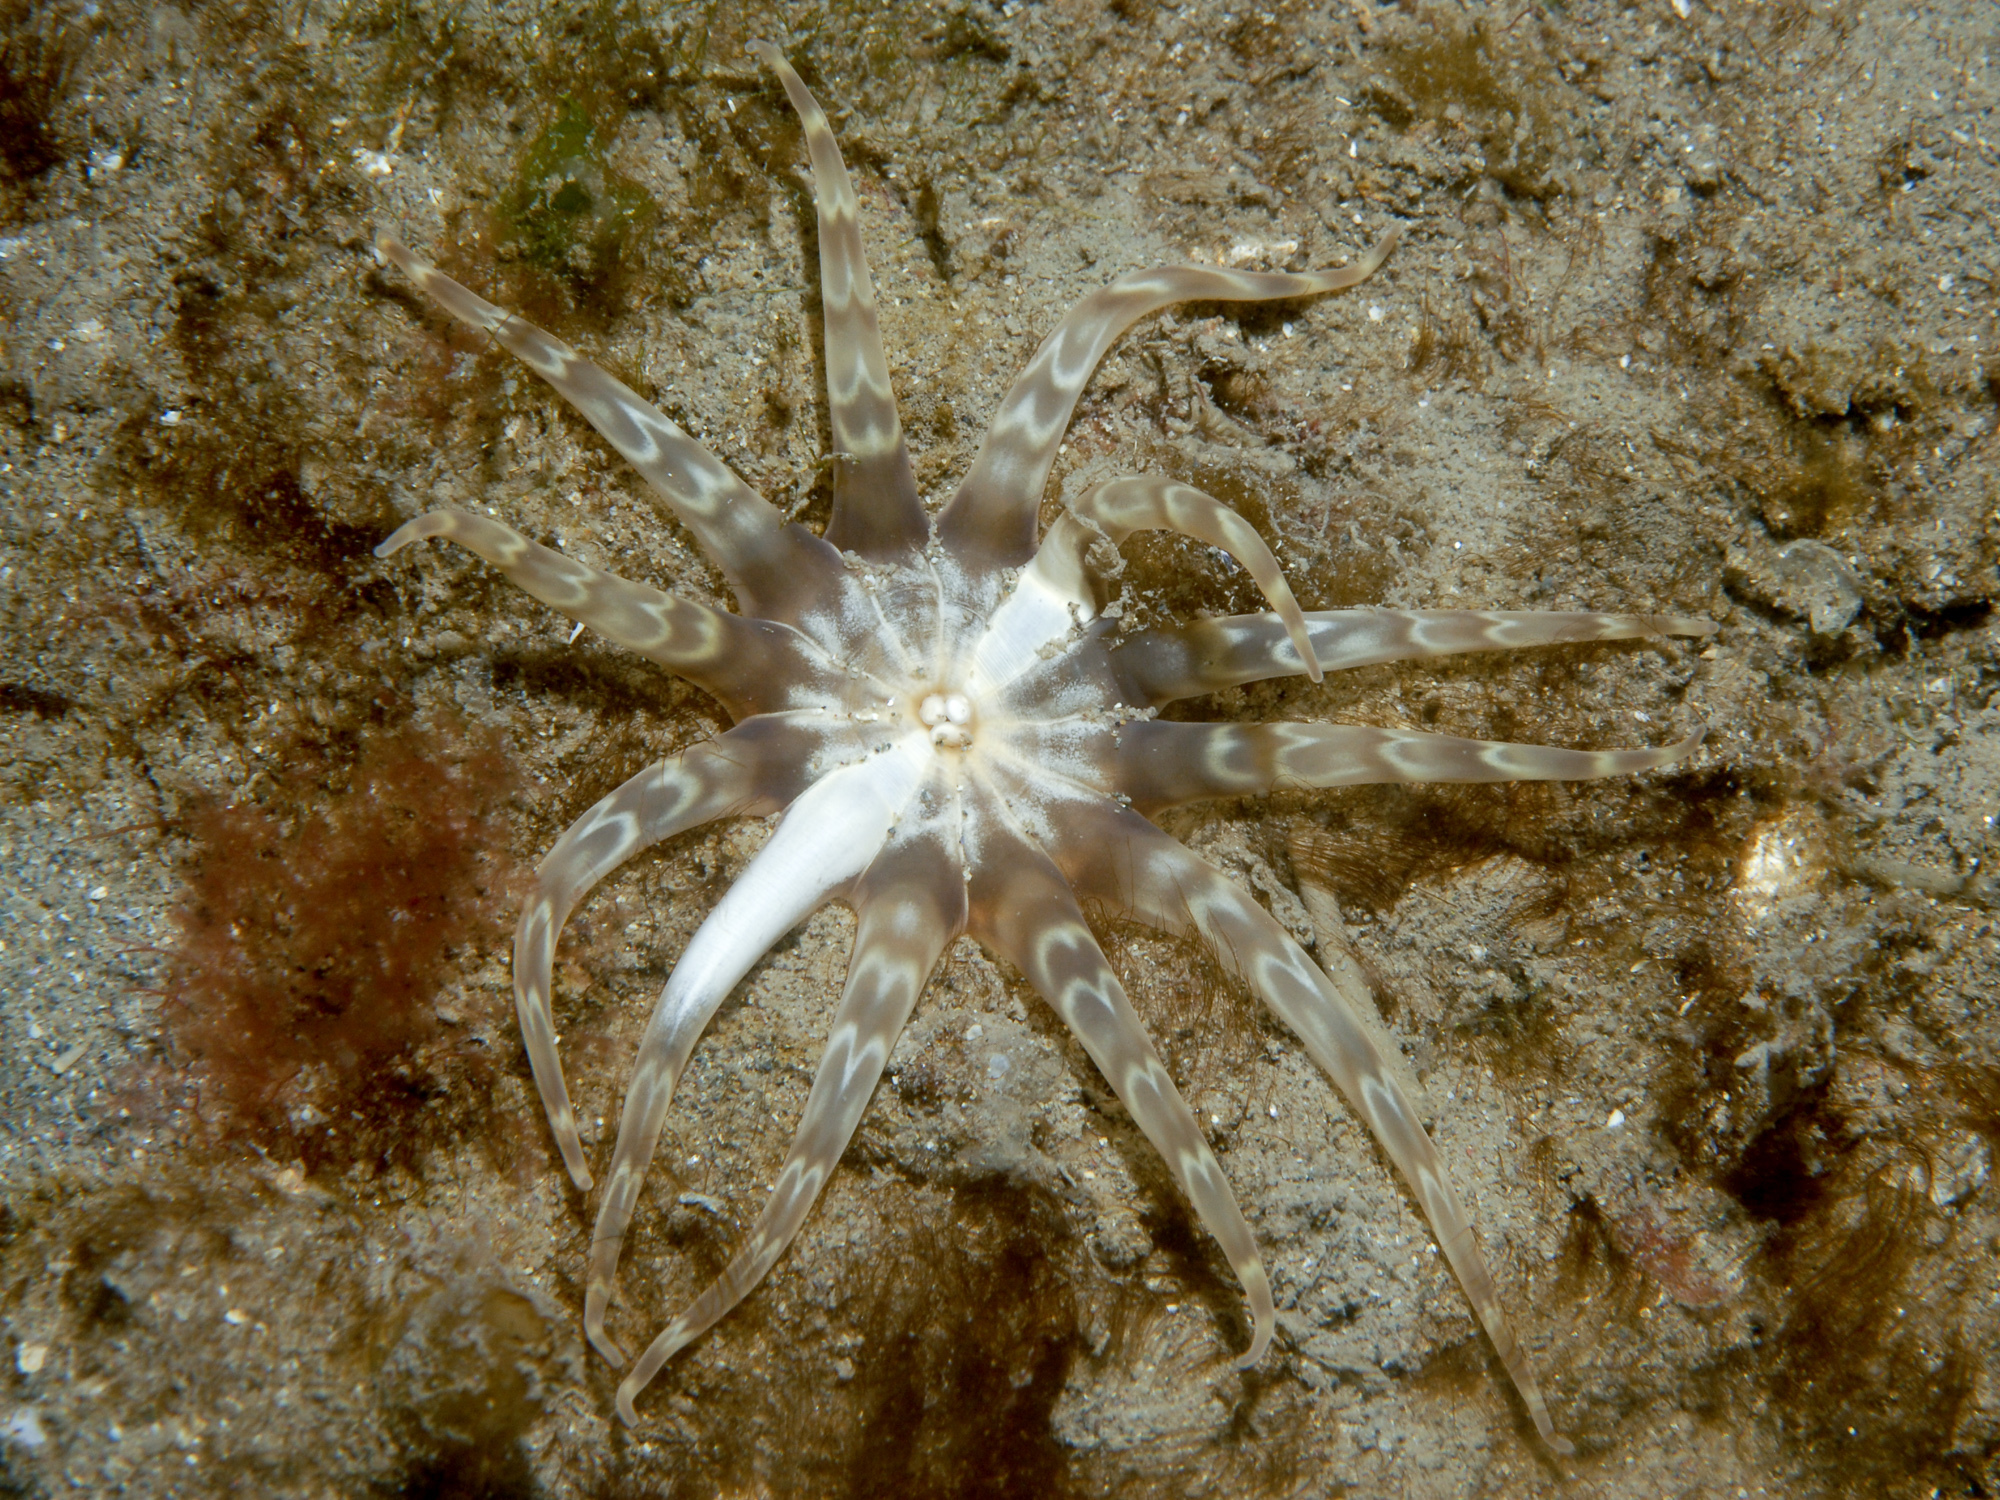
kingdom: Animalia
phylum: Cnidaria
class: Anthozoa
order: Actiniaria
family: Peachiidae
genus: Peachia
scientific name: Peachia cylindrica
